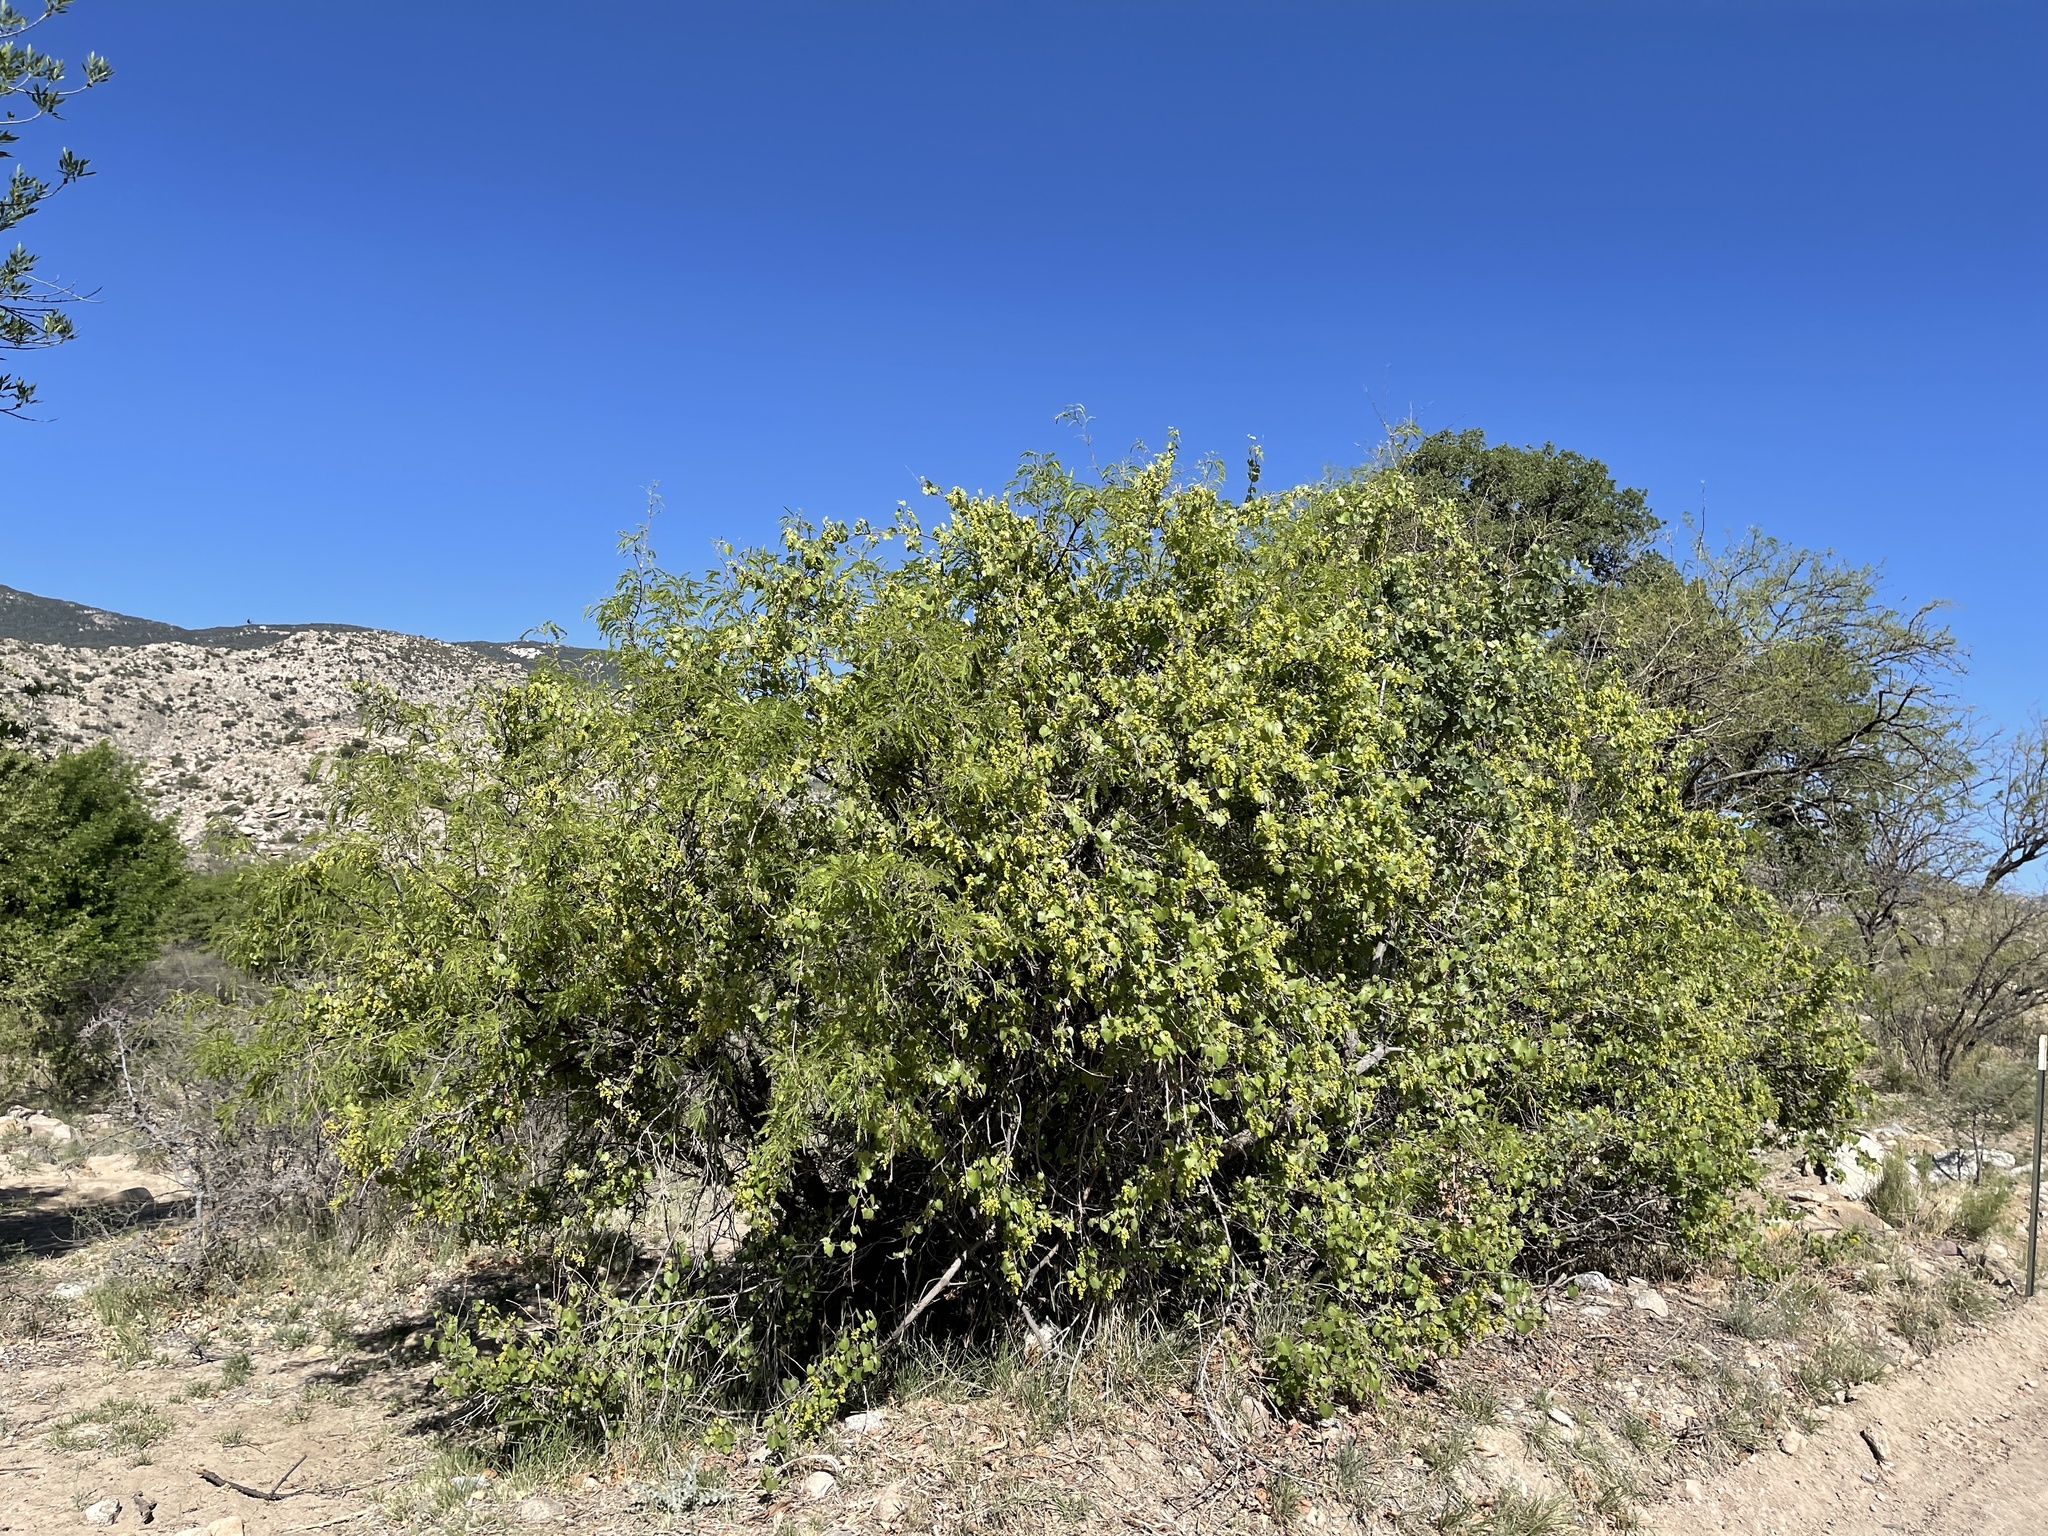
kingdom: Plantae
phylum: Tracheophyta
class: Magnoliopsida
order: Vitales
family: Vitaceae
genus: Vitis
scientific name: Vitis arizonica
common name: Canyon grape
